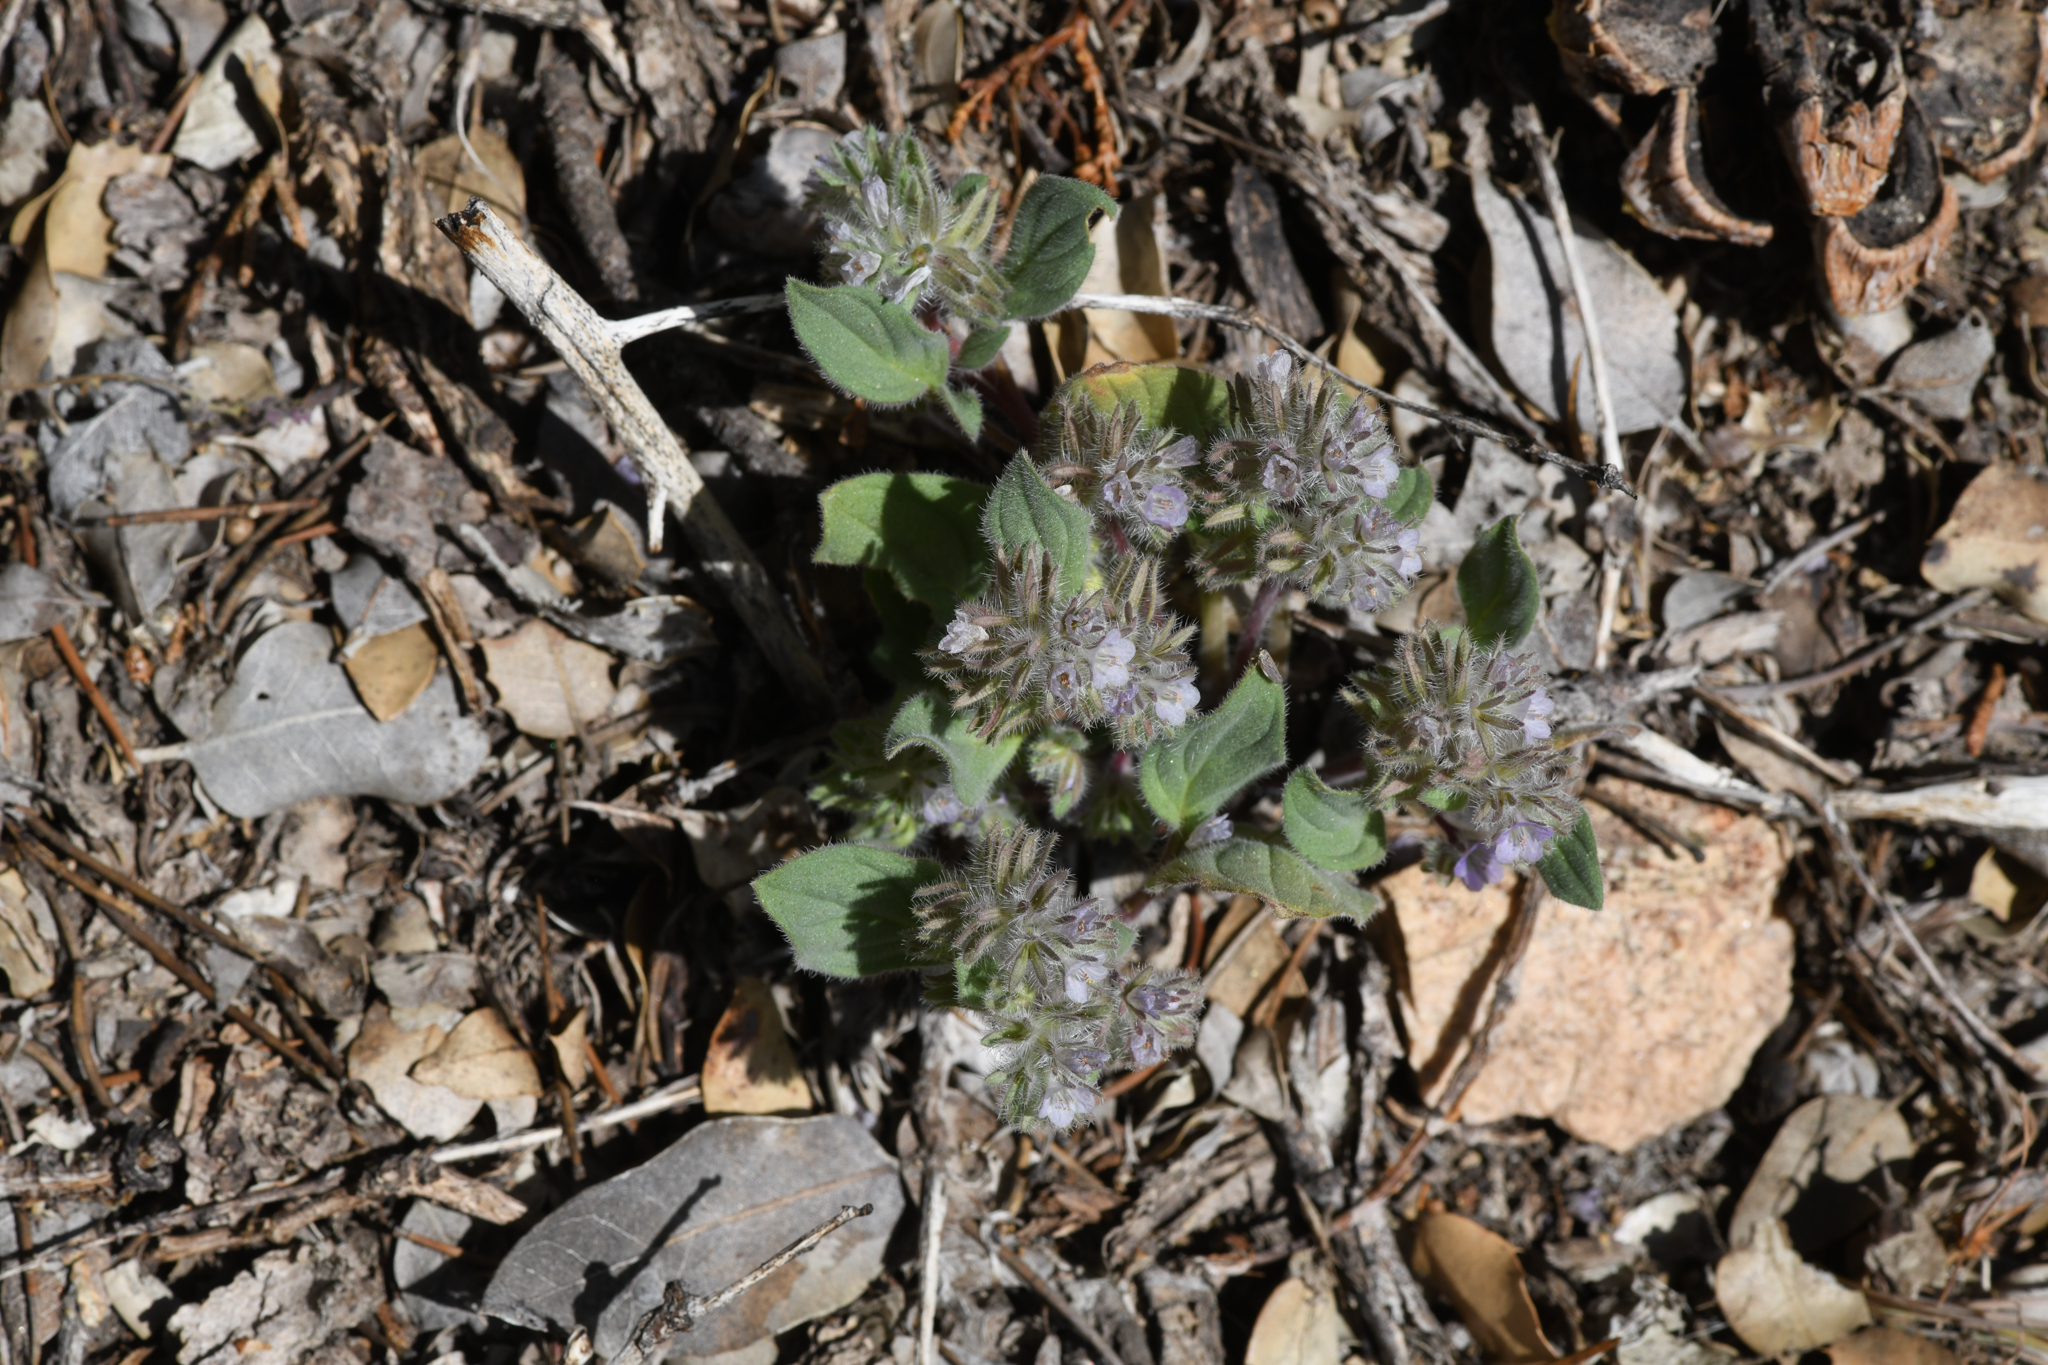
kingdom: Plantae
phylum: Tracheophyta
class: Magnoliopsida
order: Boraginales
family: Hydrophyllaceae
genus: Phacelia
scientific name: Phacelia novenmillensis
